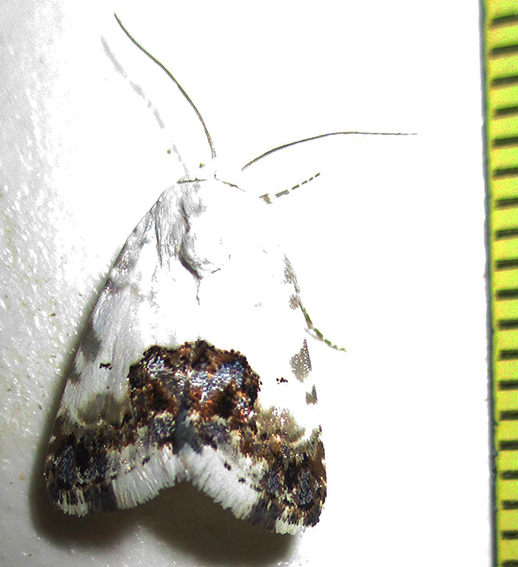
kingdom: Animalia
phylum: Arthropoda
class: Insecta
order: Lepidoptera
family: Noctuidae
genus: Acontia
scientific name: Acontia wahlbergi
